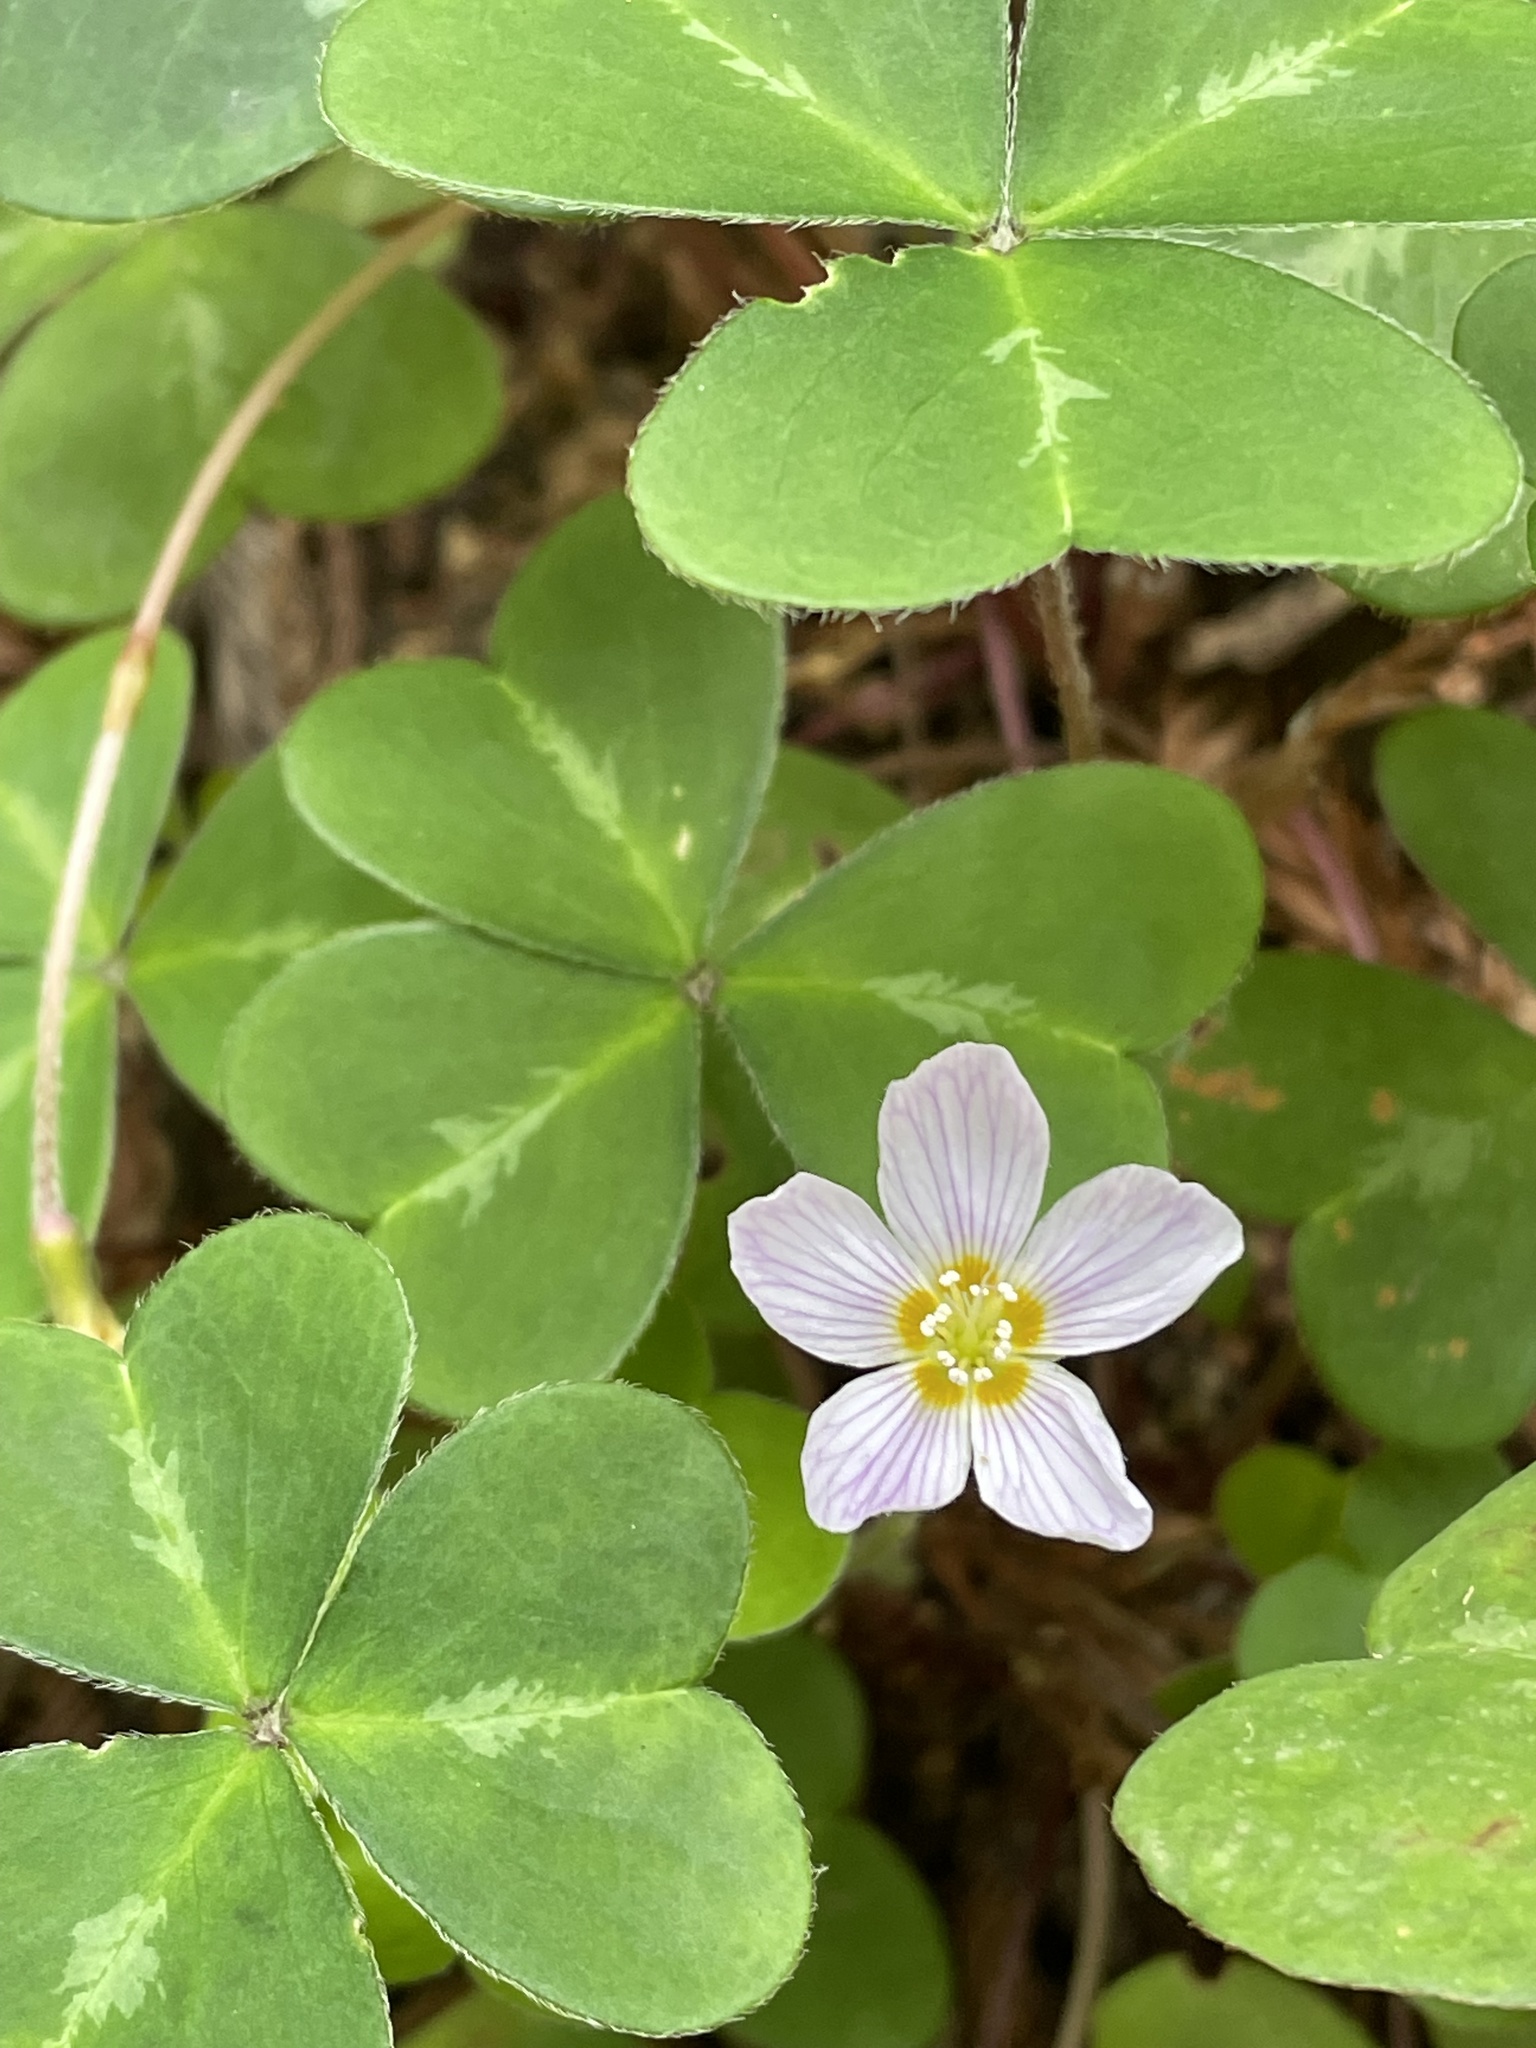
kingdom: Plantae
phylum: Tracheophyta
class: Magnoliopsida
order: Oxalidales
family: Oxalidaceae
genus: Oxalis
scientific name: Oxalis oregana
